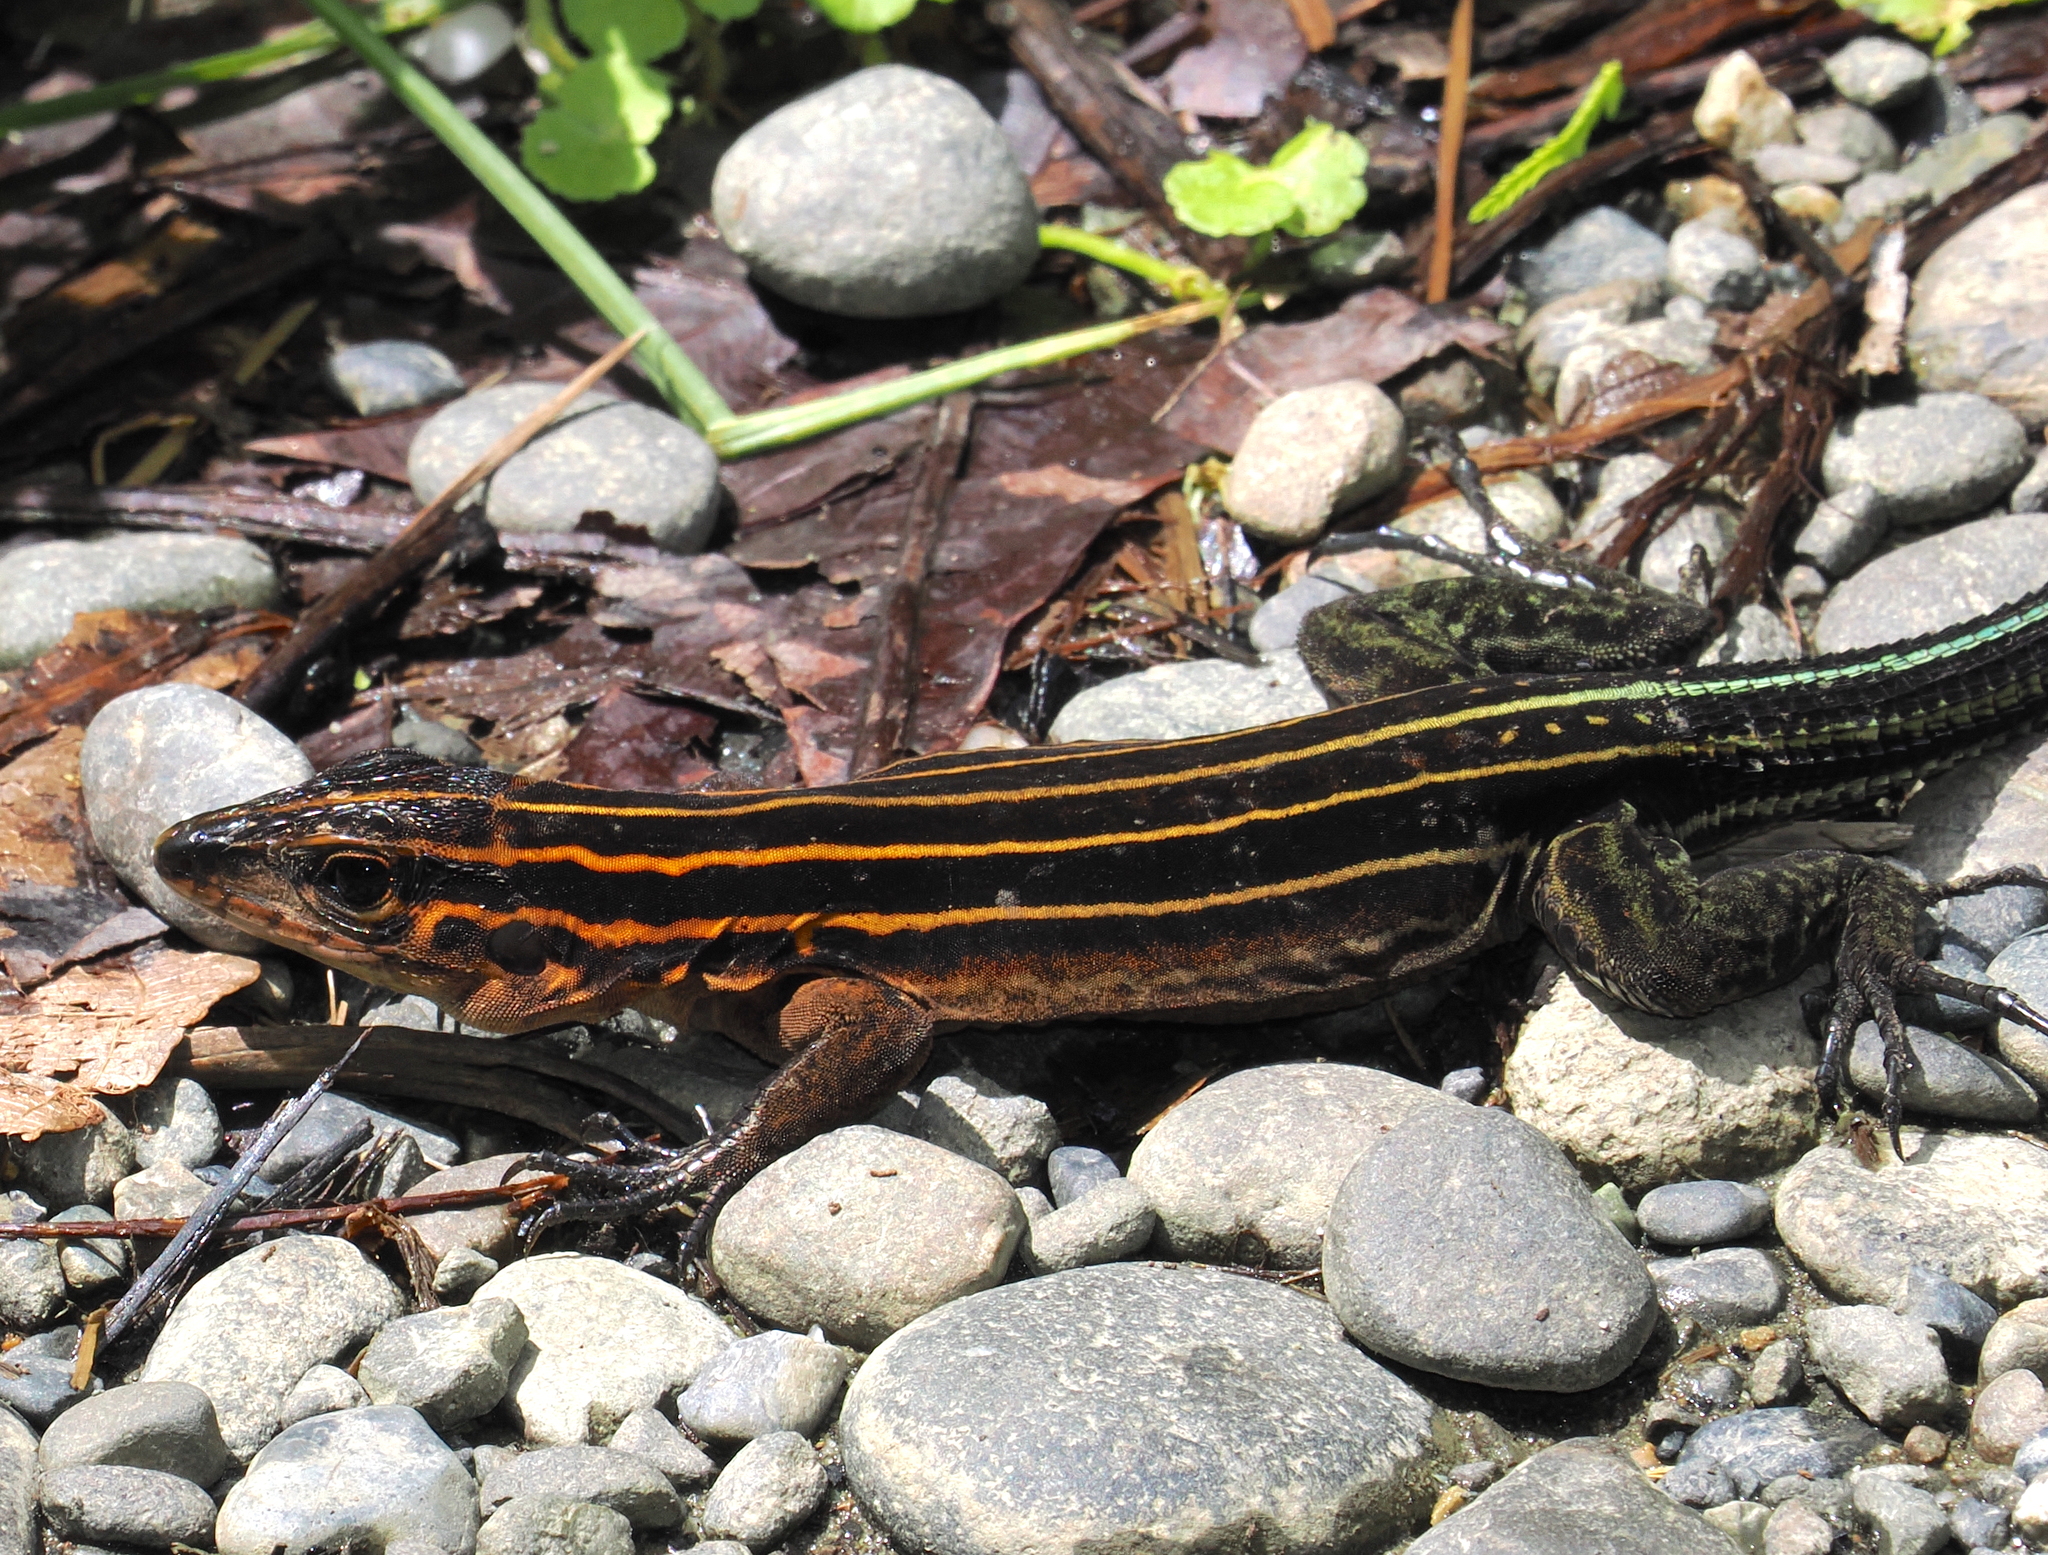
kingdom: Animalia
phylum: Chordata
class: Squamata
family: Teiidae
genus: Holcosus
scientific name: Holcosus anomalus
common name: Echternacht's ameiva
